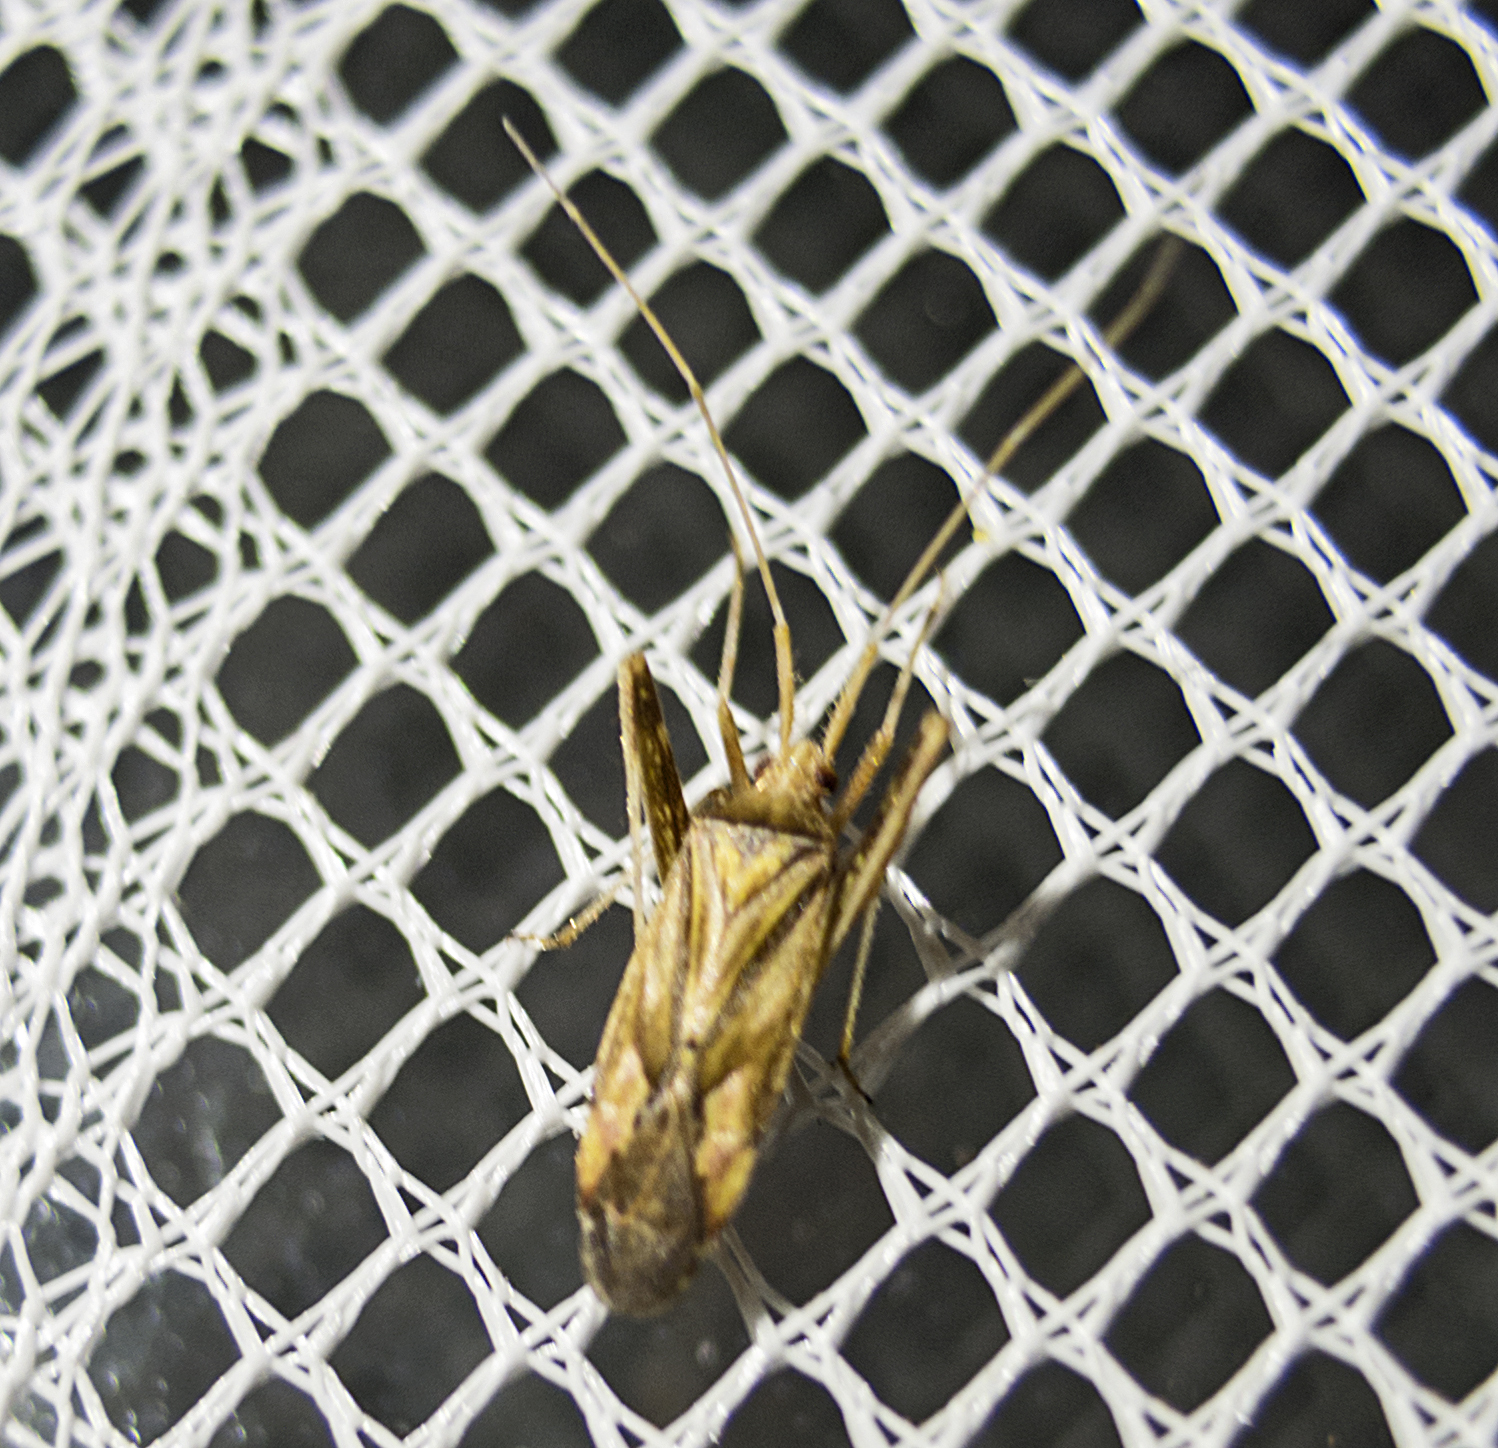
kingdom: Animalia
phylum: Arthropoda
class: Insecta
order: Hemiptera
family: Miridae
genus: Phytocoris
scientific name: Phytocoris varipes
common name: Plant bug
